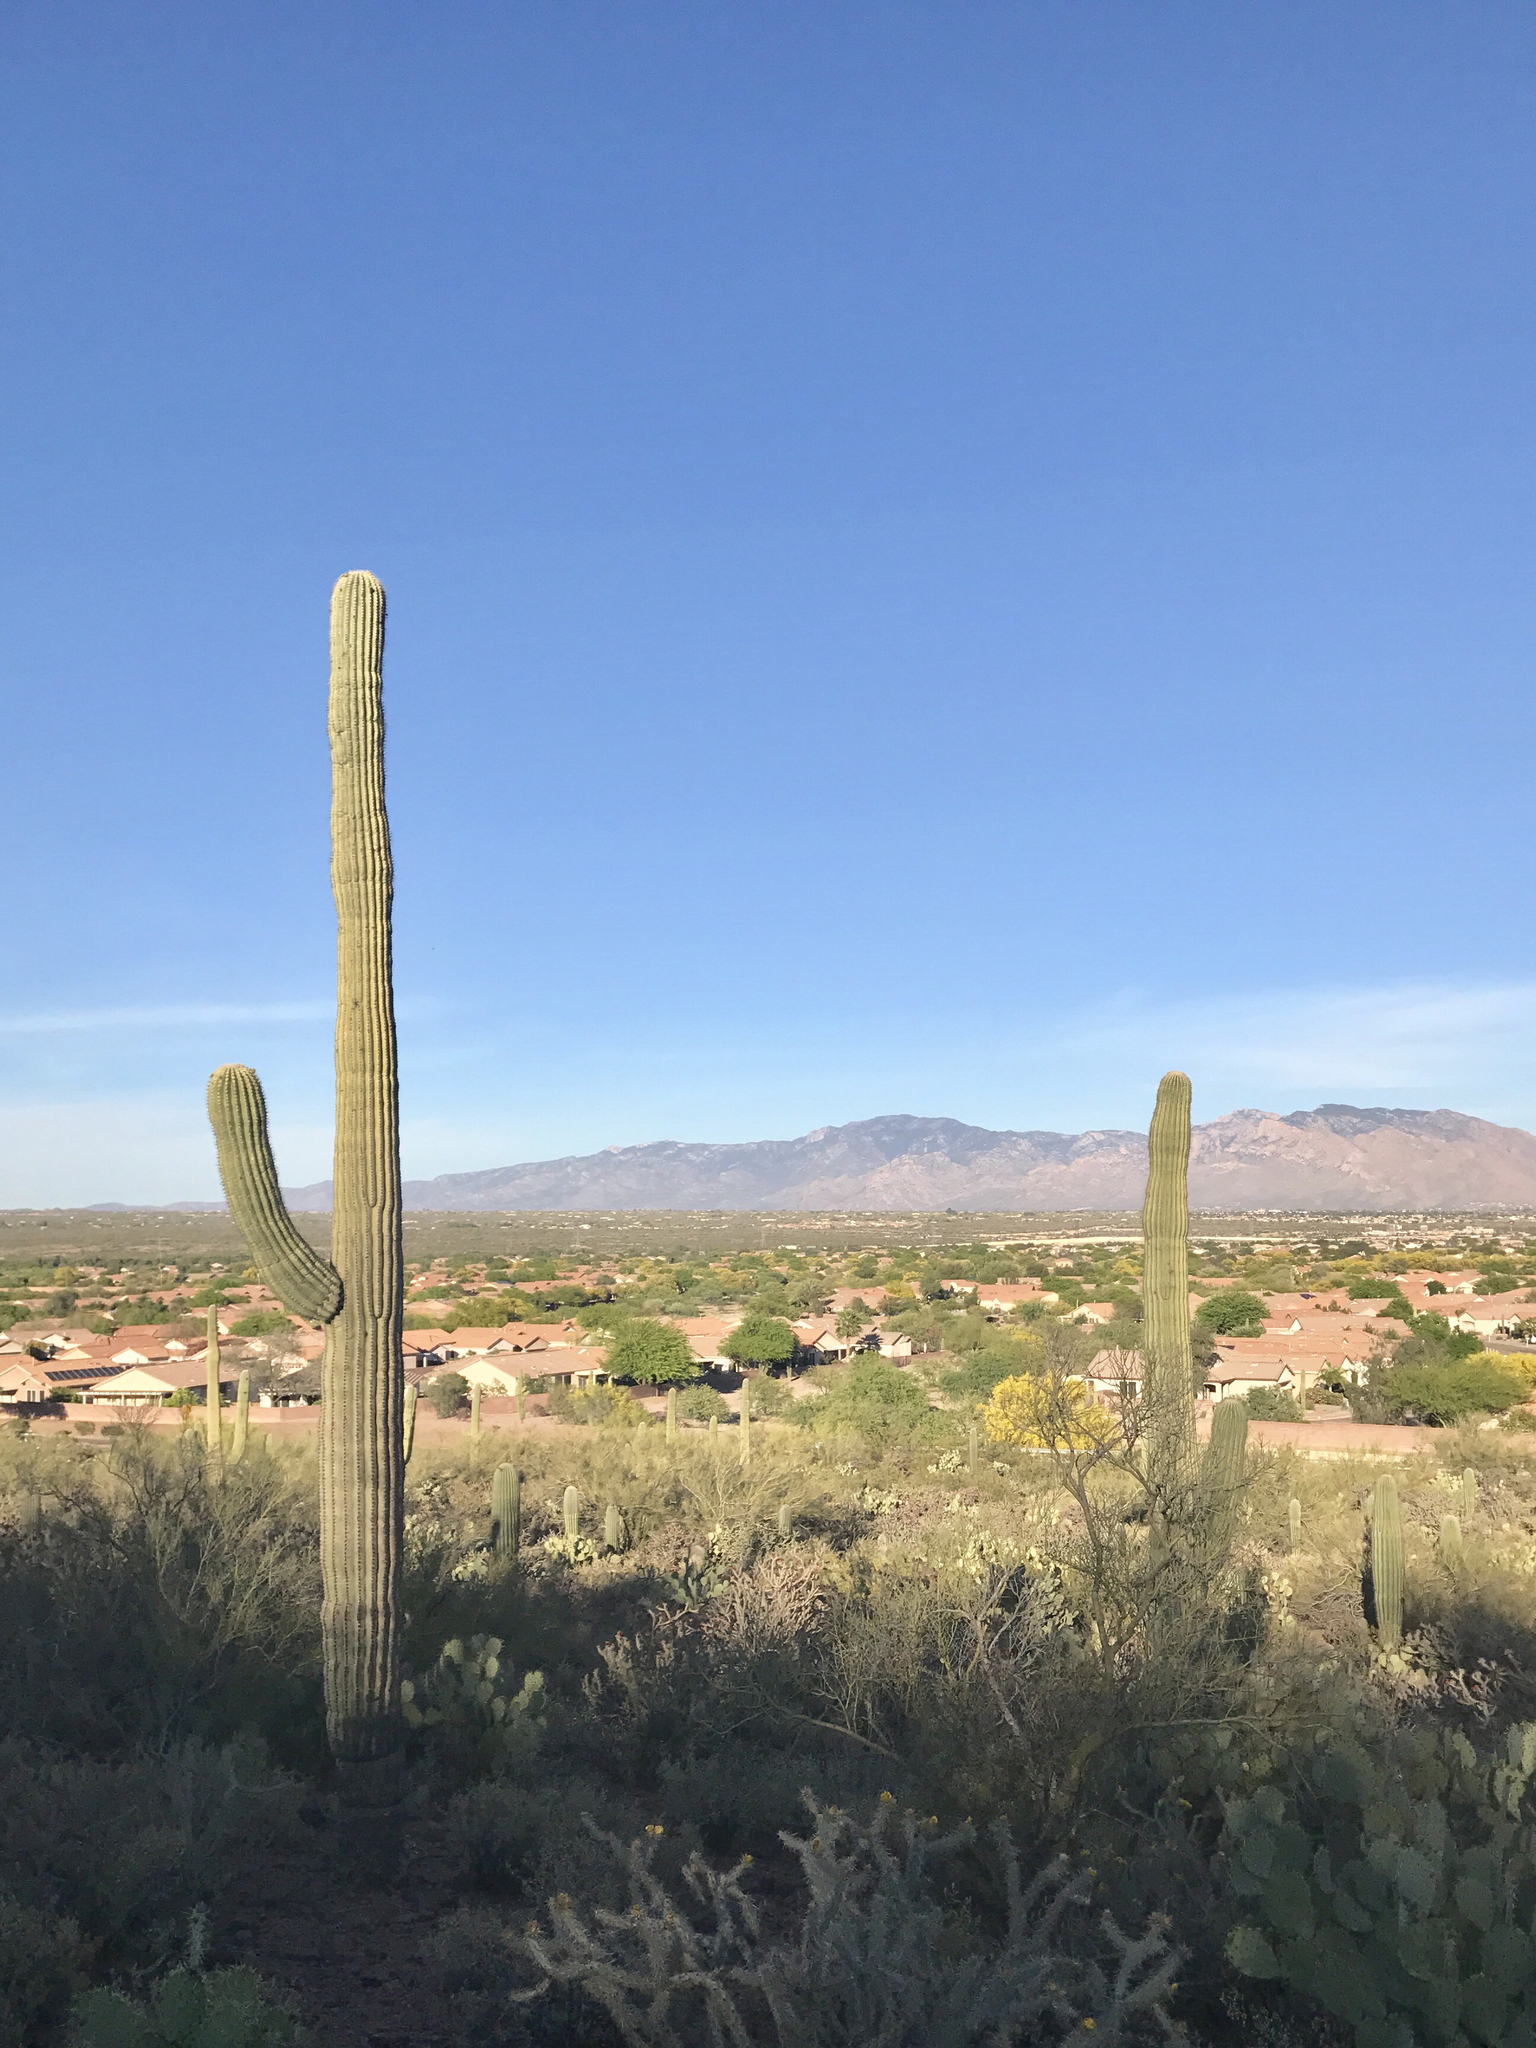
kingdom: Plantae
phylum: Tracheophyta
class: Magnoliopsida
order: Caryophyllales
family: Cactaceae
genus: Carnegiea
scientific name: Carnegiea gigantea
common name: Saguaro
